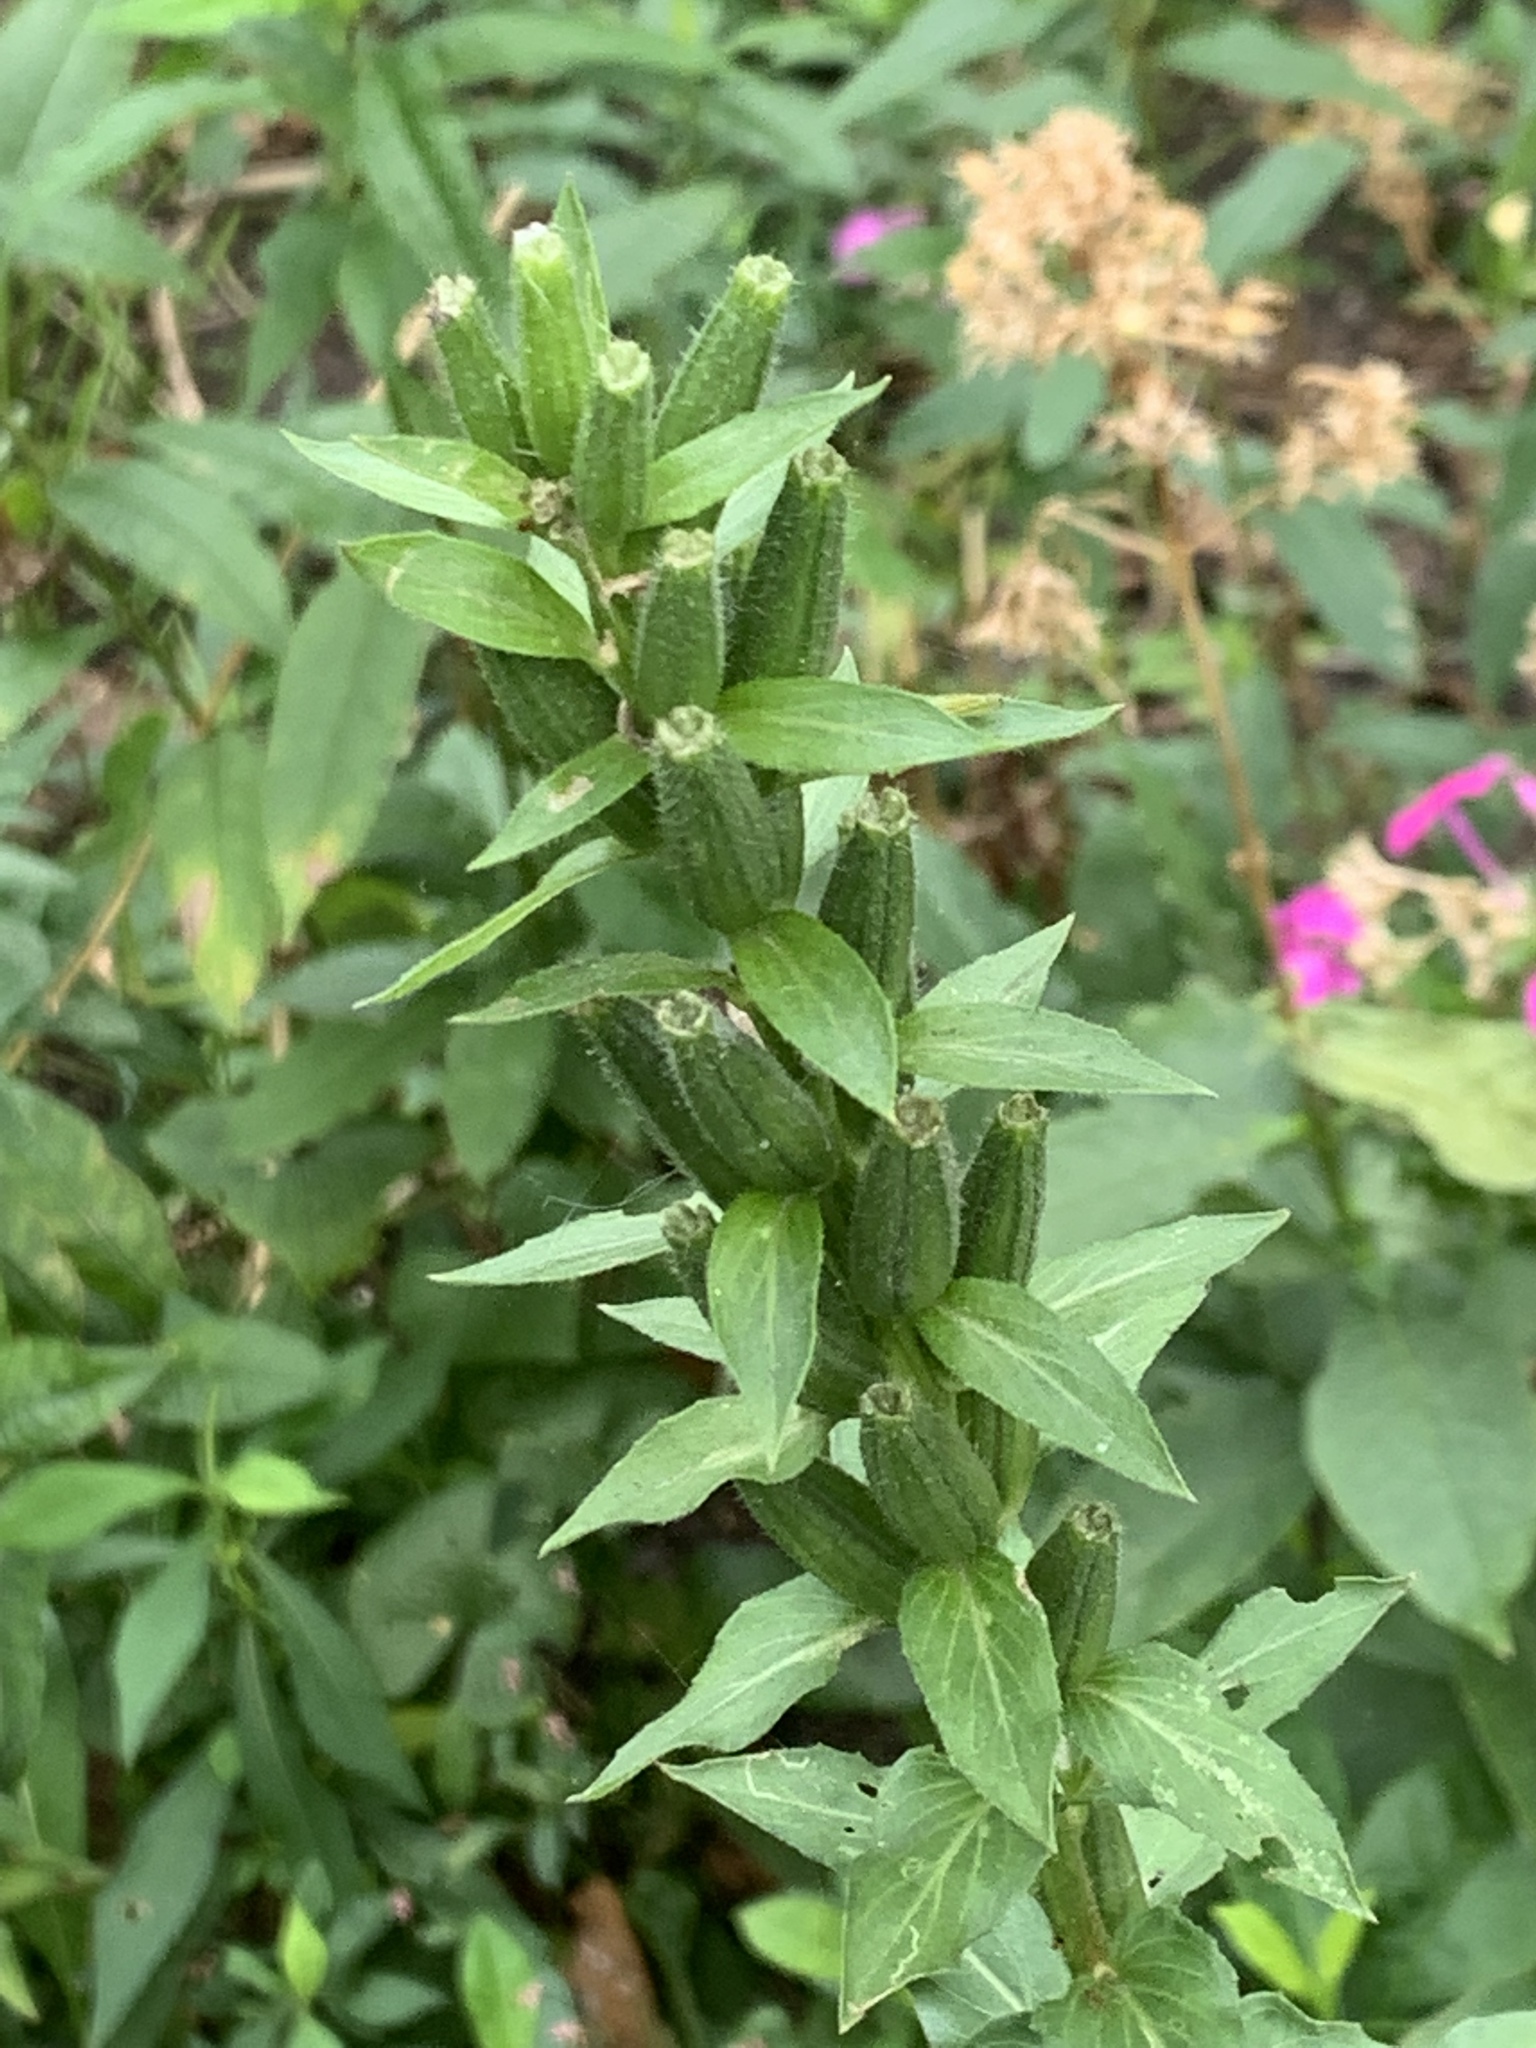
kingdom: Plantae
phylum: Tracheophyta
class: Magnoliopsida
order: Myrtales
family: Onagraceae
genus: Oenothera
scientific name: Oenothera biennis
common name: Common evening-primrose
